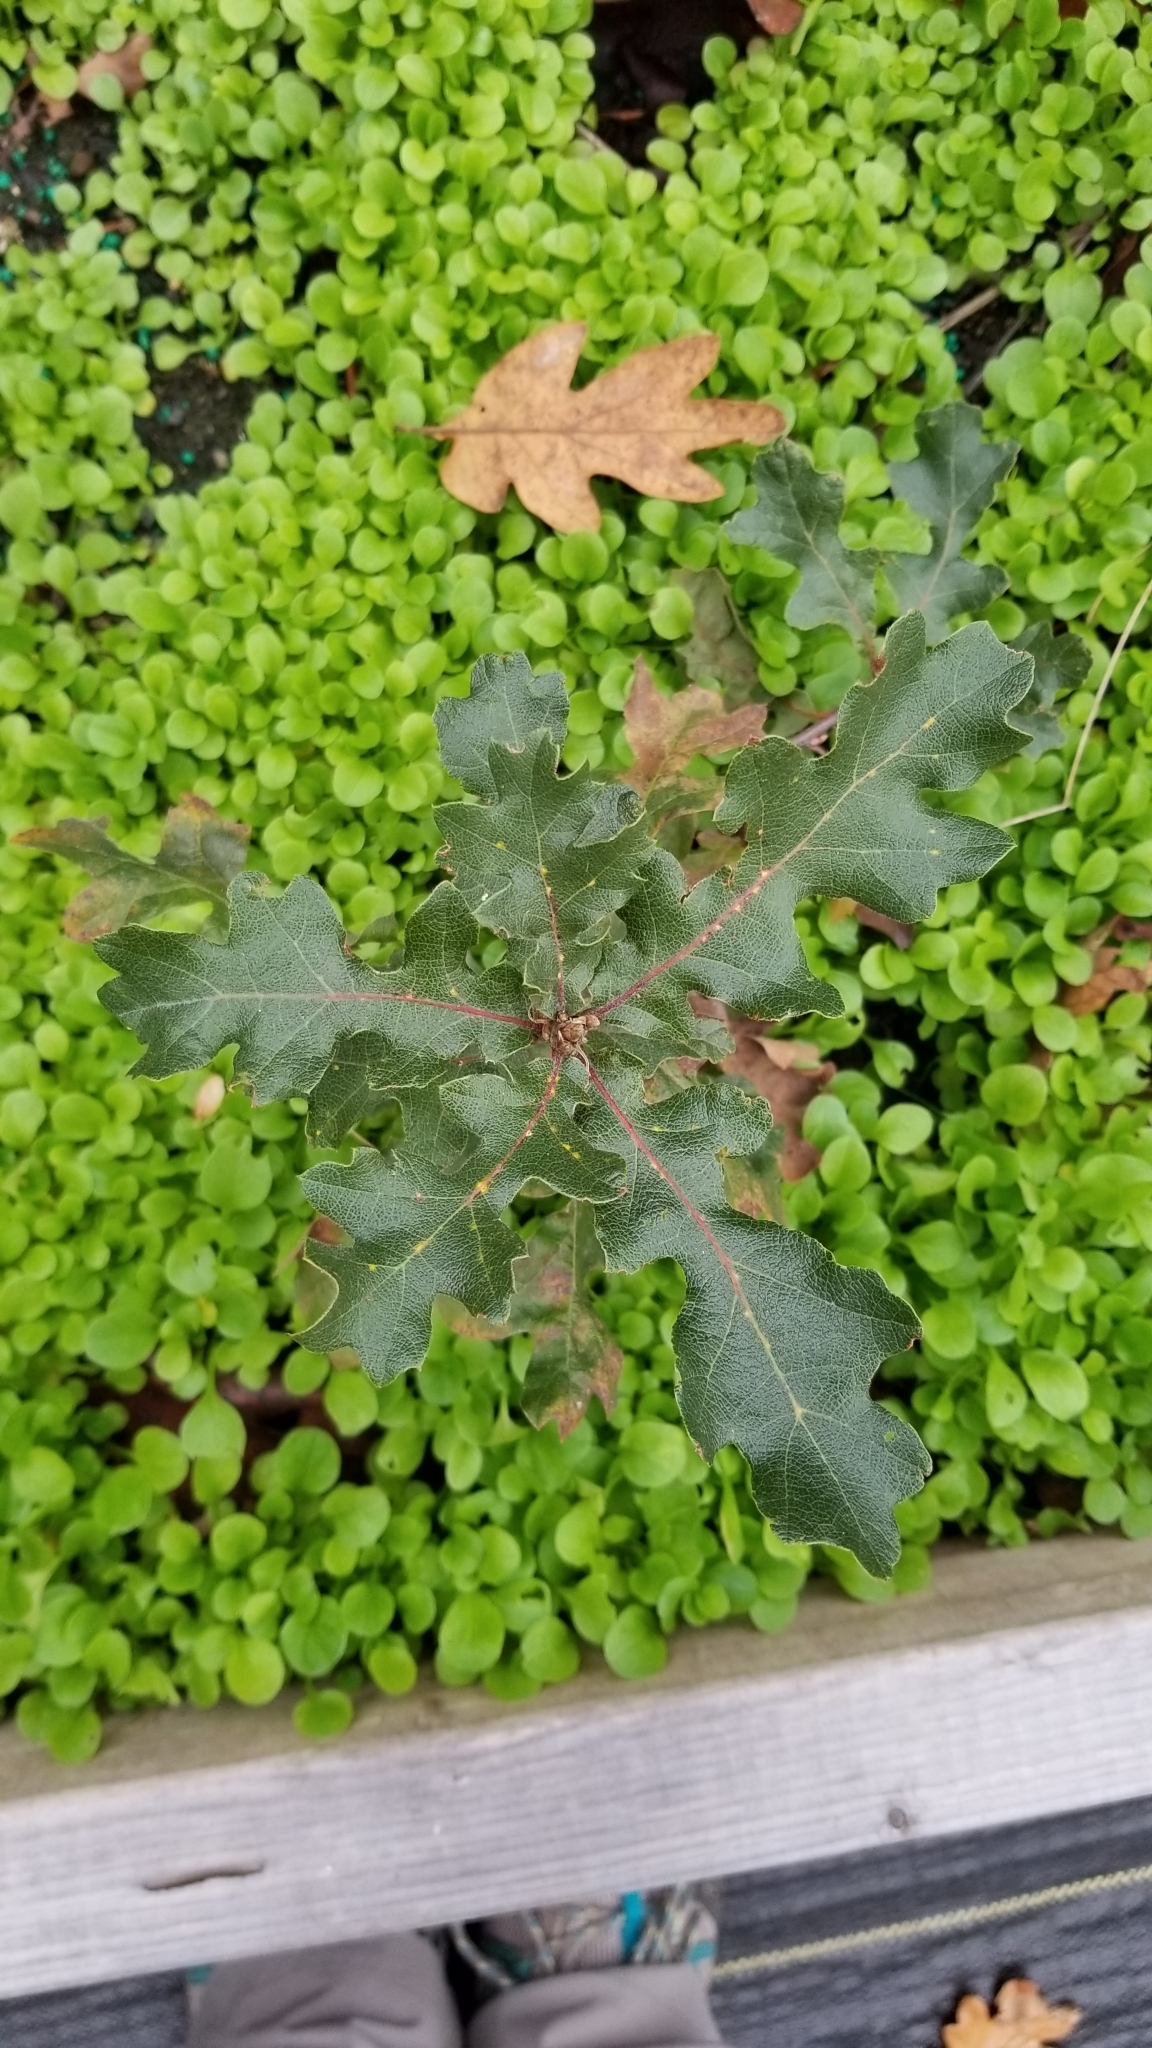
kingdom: Plantae
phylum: Tracheophyta
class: Magnoliopsida
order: Fagales
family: Fagaceae
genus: Quercus
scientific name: Quercus garryana
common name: Garry oak
